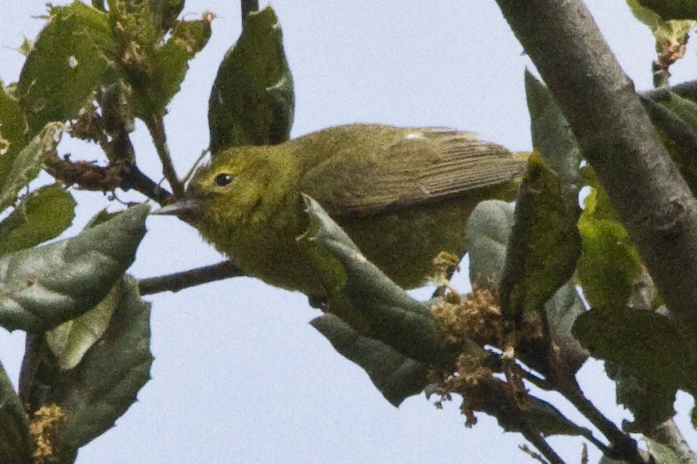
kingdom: Animalia
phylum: Chordata
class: Aves
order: Passeriformes
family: Parulidae
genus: Leiothlypis
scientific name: Leiothlypis celata
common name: Orange-crowned warbler
